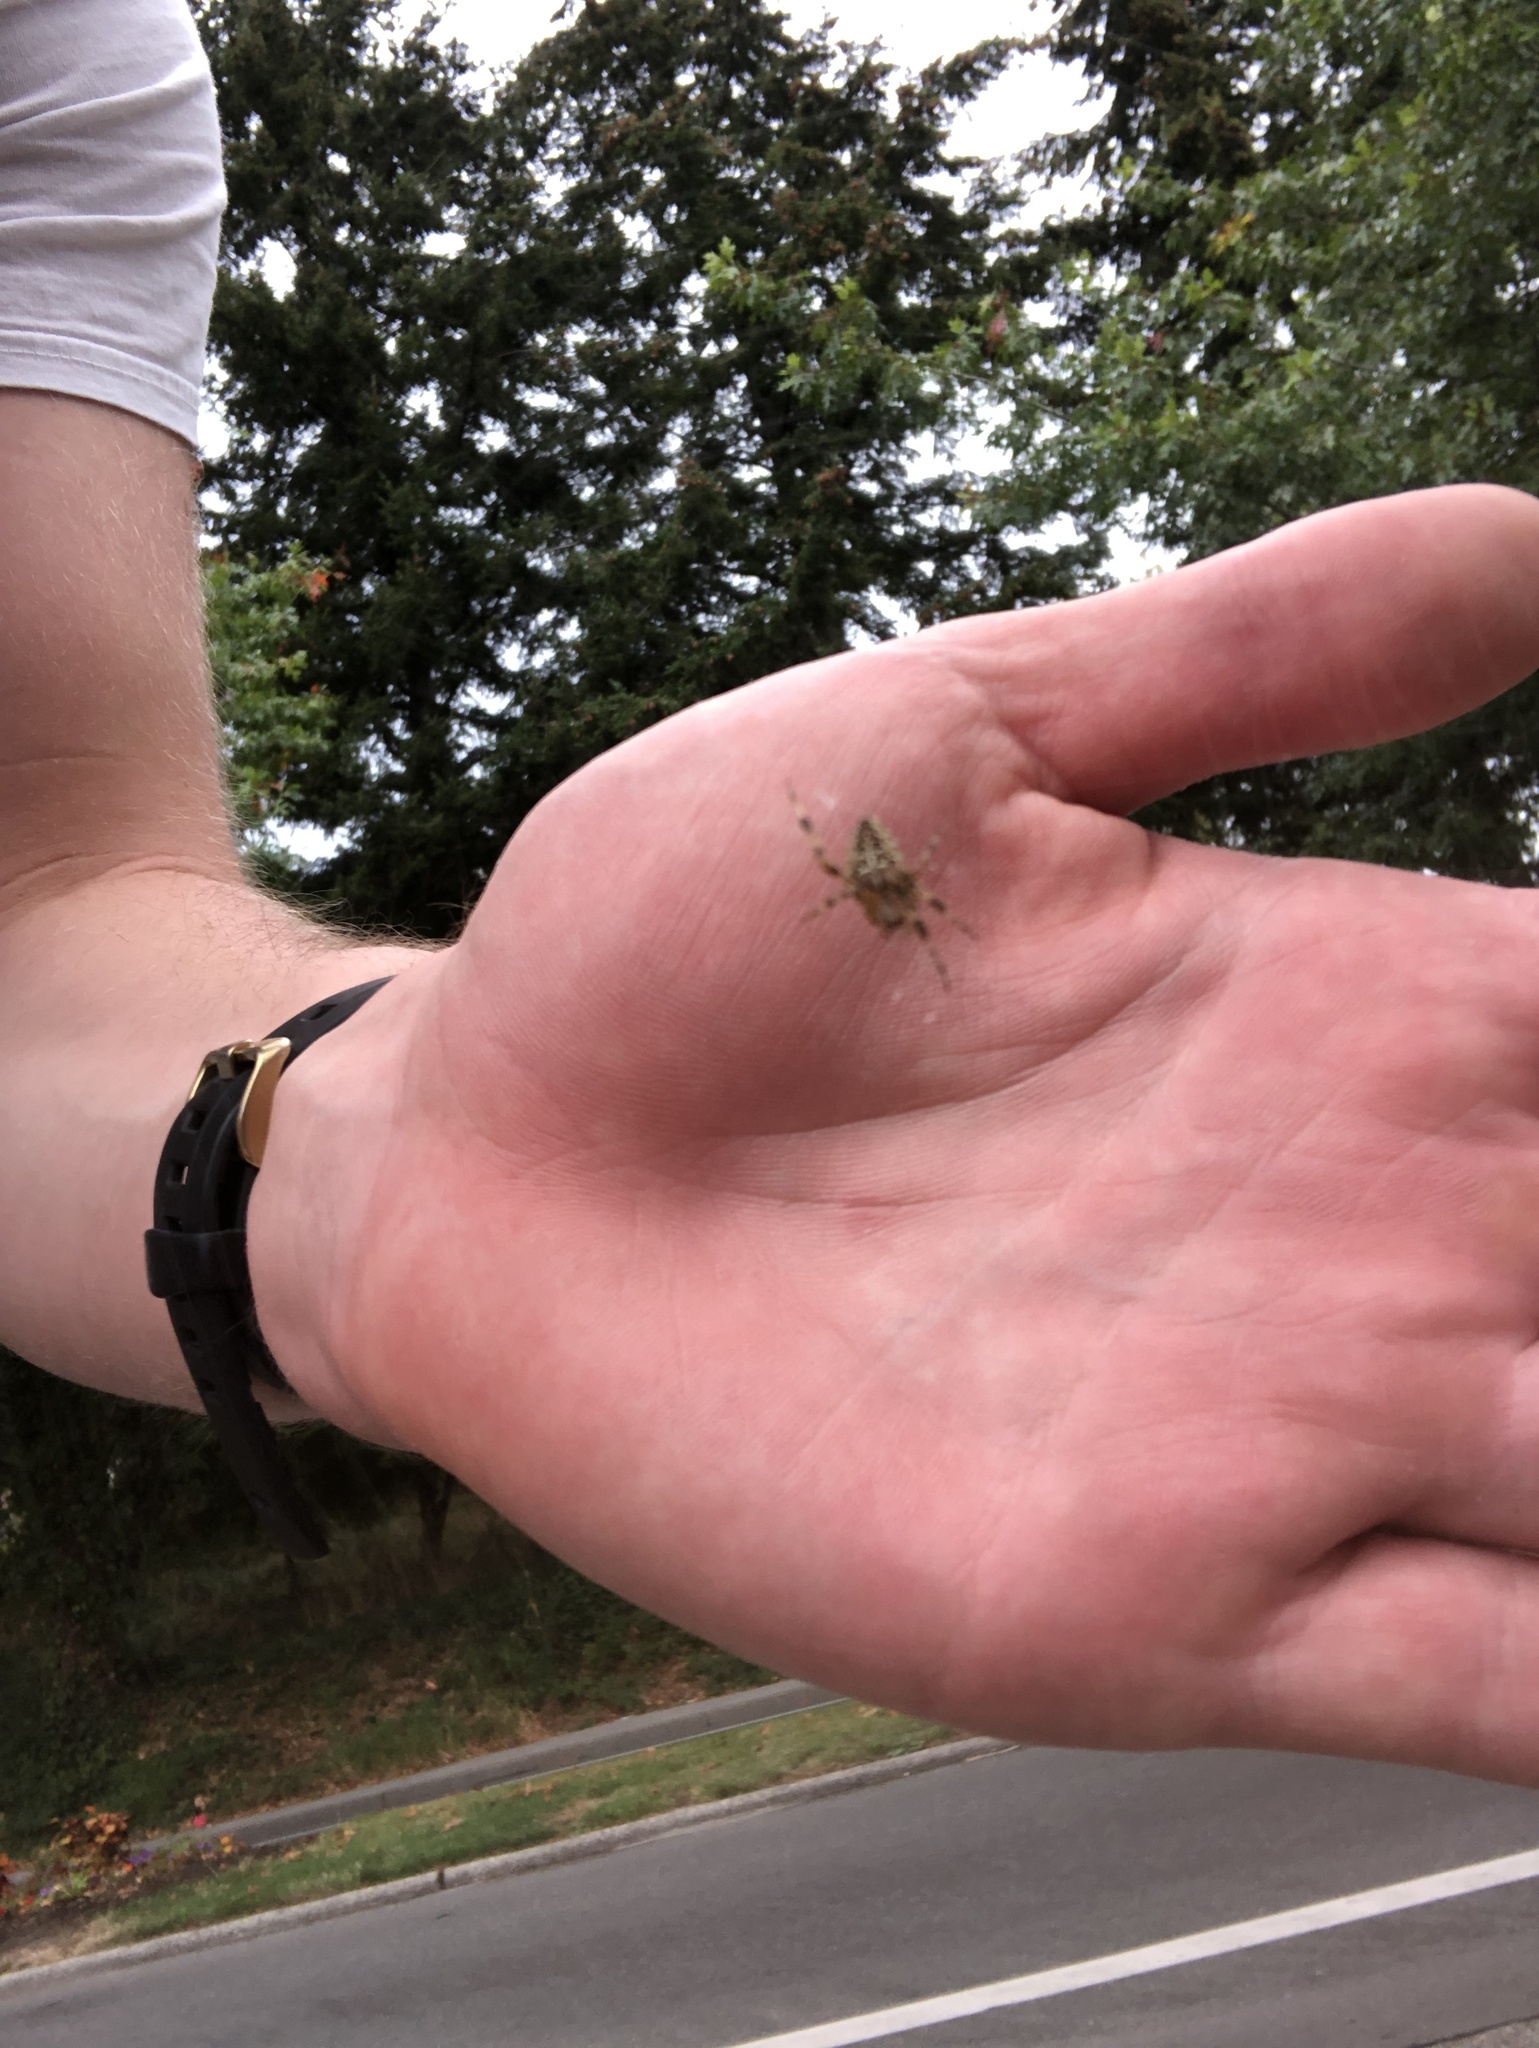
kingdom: Animalia
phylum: Arthropoda
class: Arachnida
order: Araneae
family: Araneidae
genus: Araneus
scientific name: Araneus diadematus
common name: Cross orbweaver
